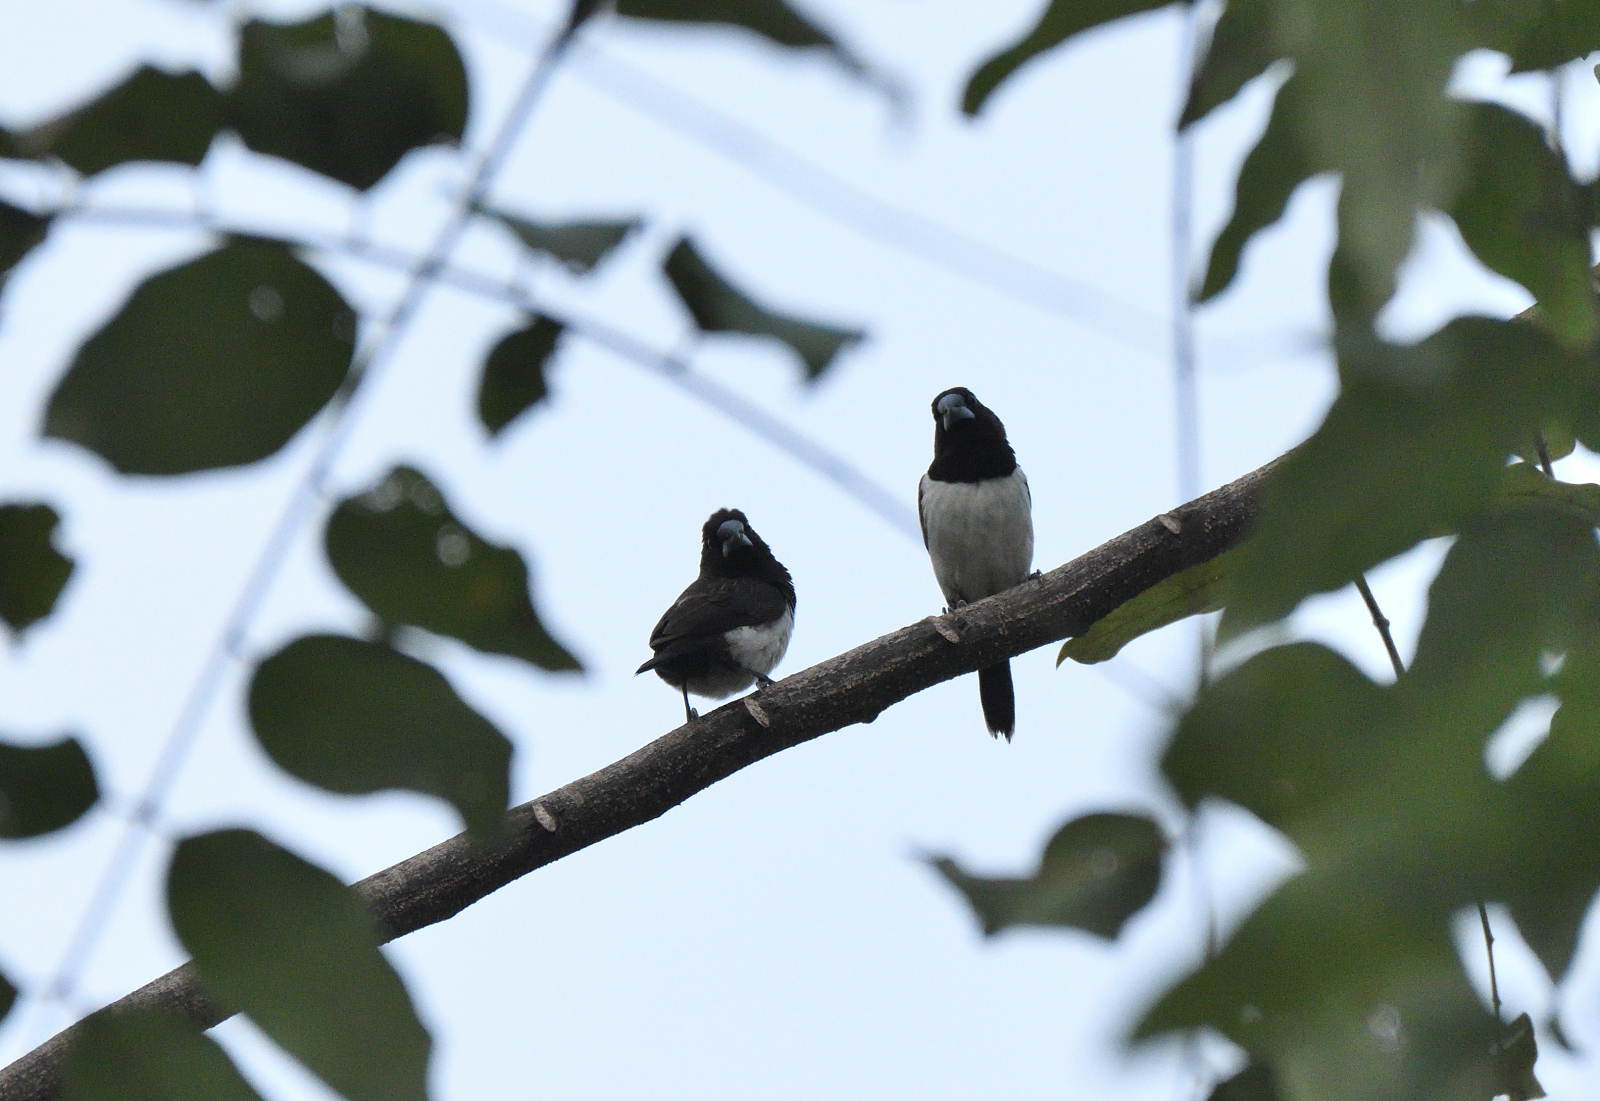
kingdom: Animalia
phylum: Chordata
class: Aves
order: Passeriformes
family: Estrildidae
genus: Lonchura
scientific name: Lonchura striata
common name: White-rumped munia
